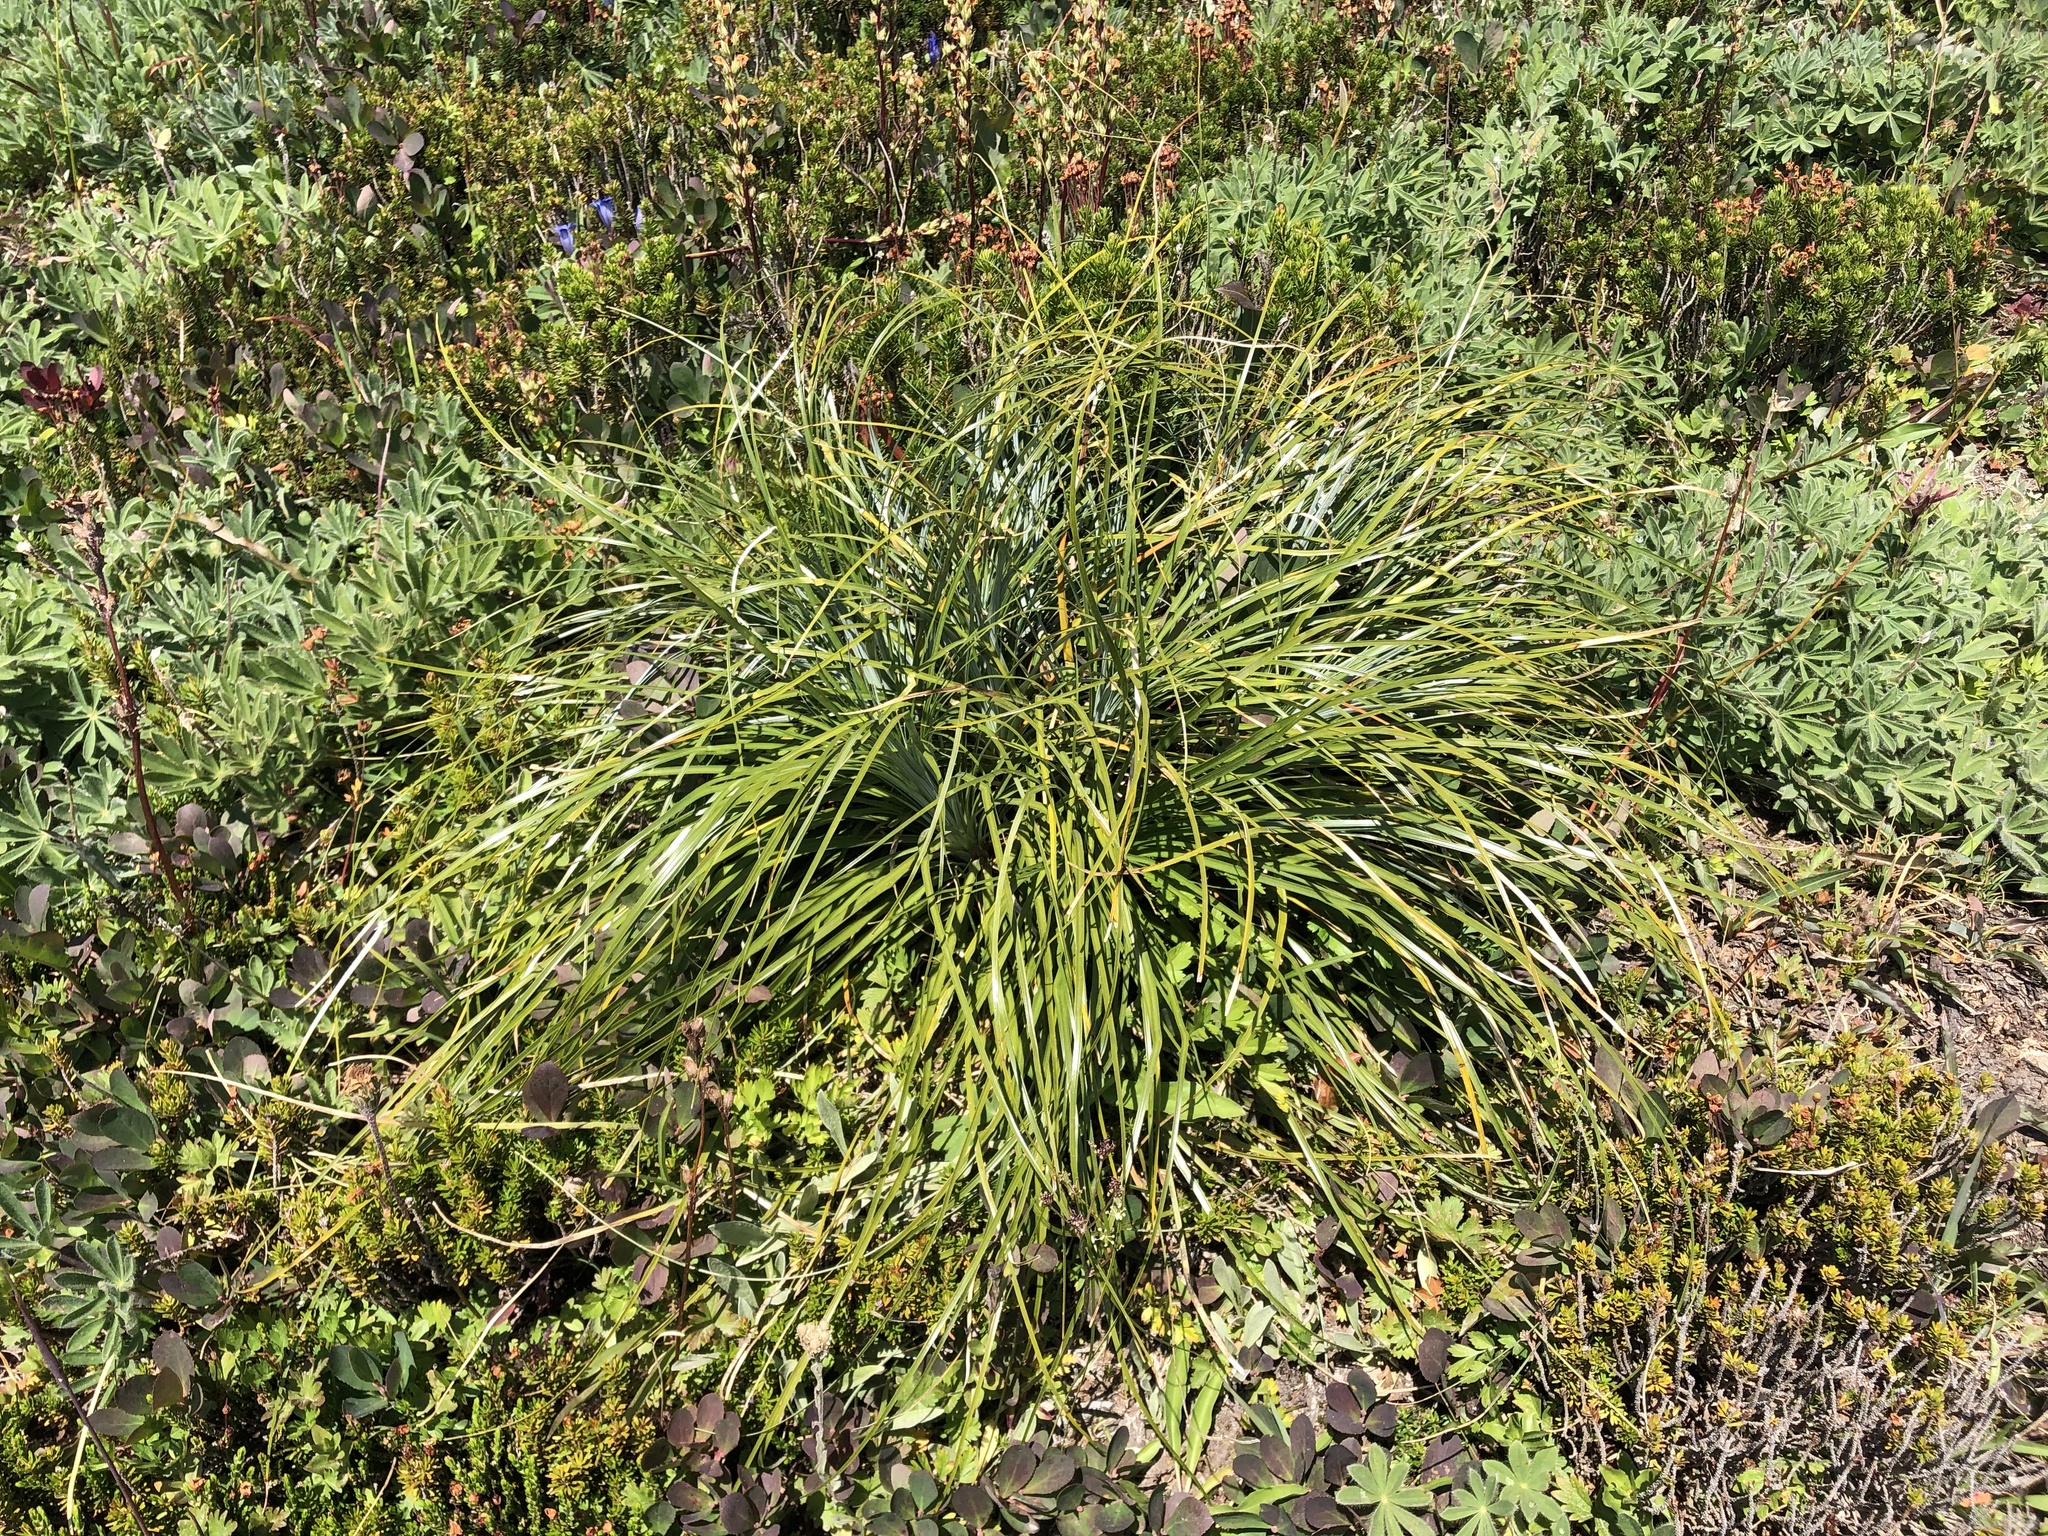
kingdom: Plantae
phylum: Tracheophyta
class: Liliopsida
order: Liliales
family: Melanthiaceae
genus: Xerophyllum
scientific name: Xerophyllum tenax
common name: Bear-grass
